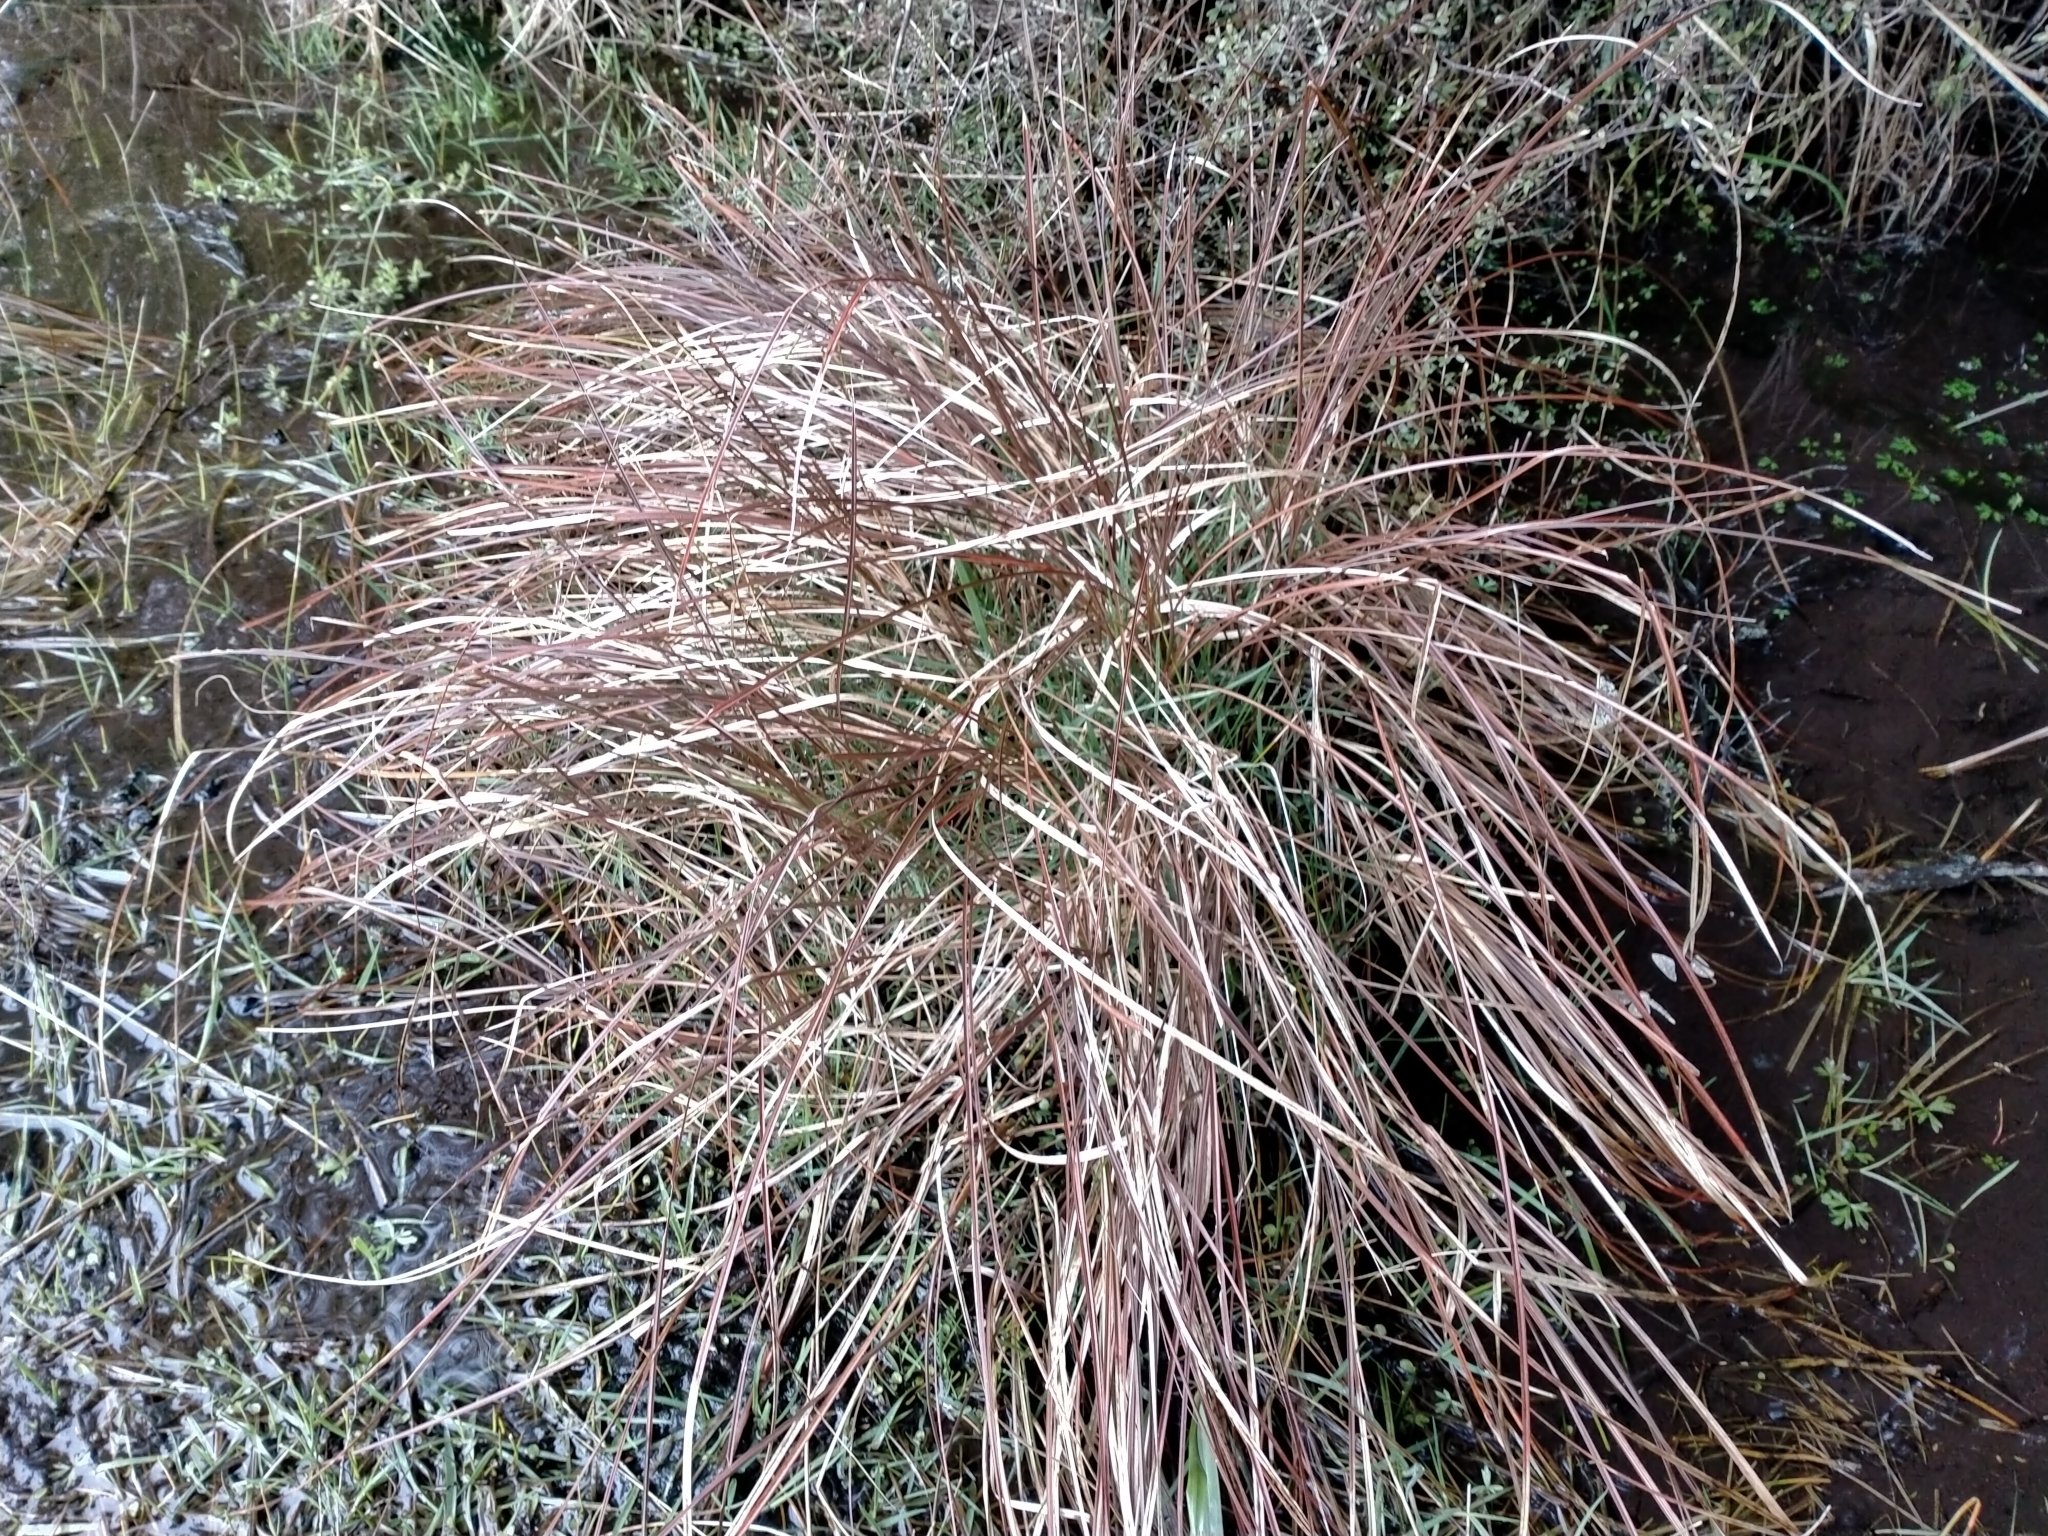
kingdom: Plantae
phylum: Tracheophyta
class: Liliopsida
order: Poales
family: Cyperaceae
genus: Carex
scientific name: Carex tenuiculmis
